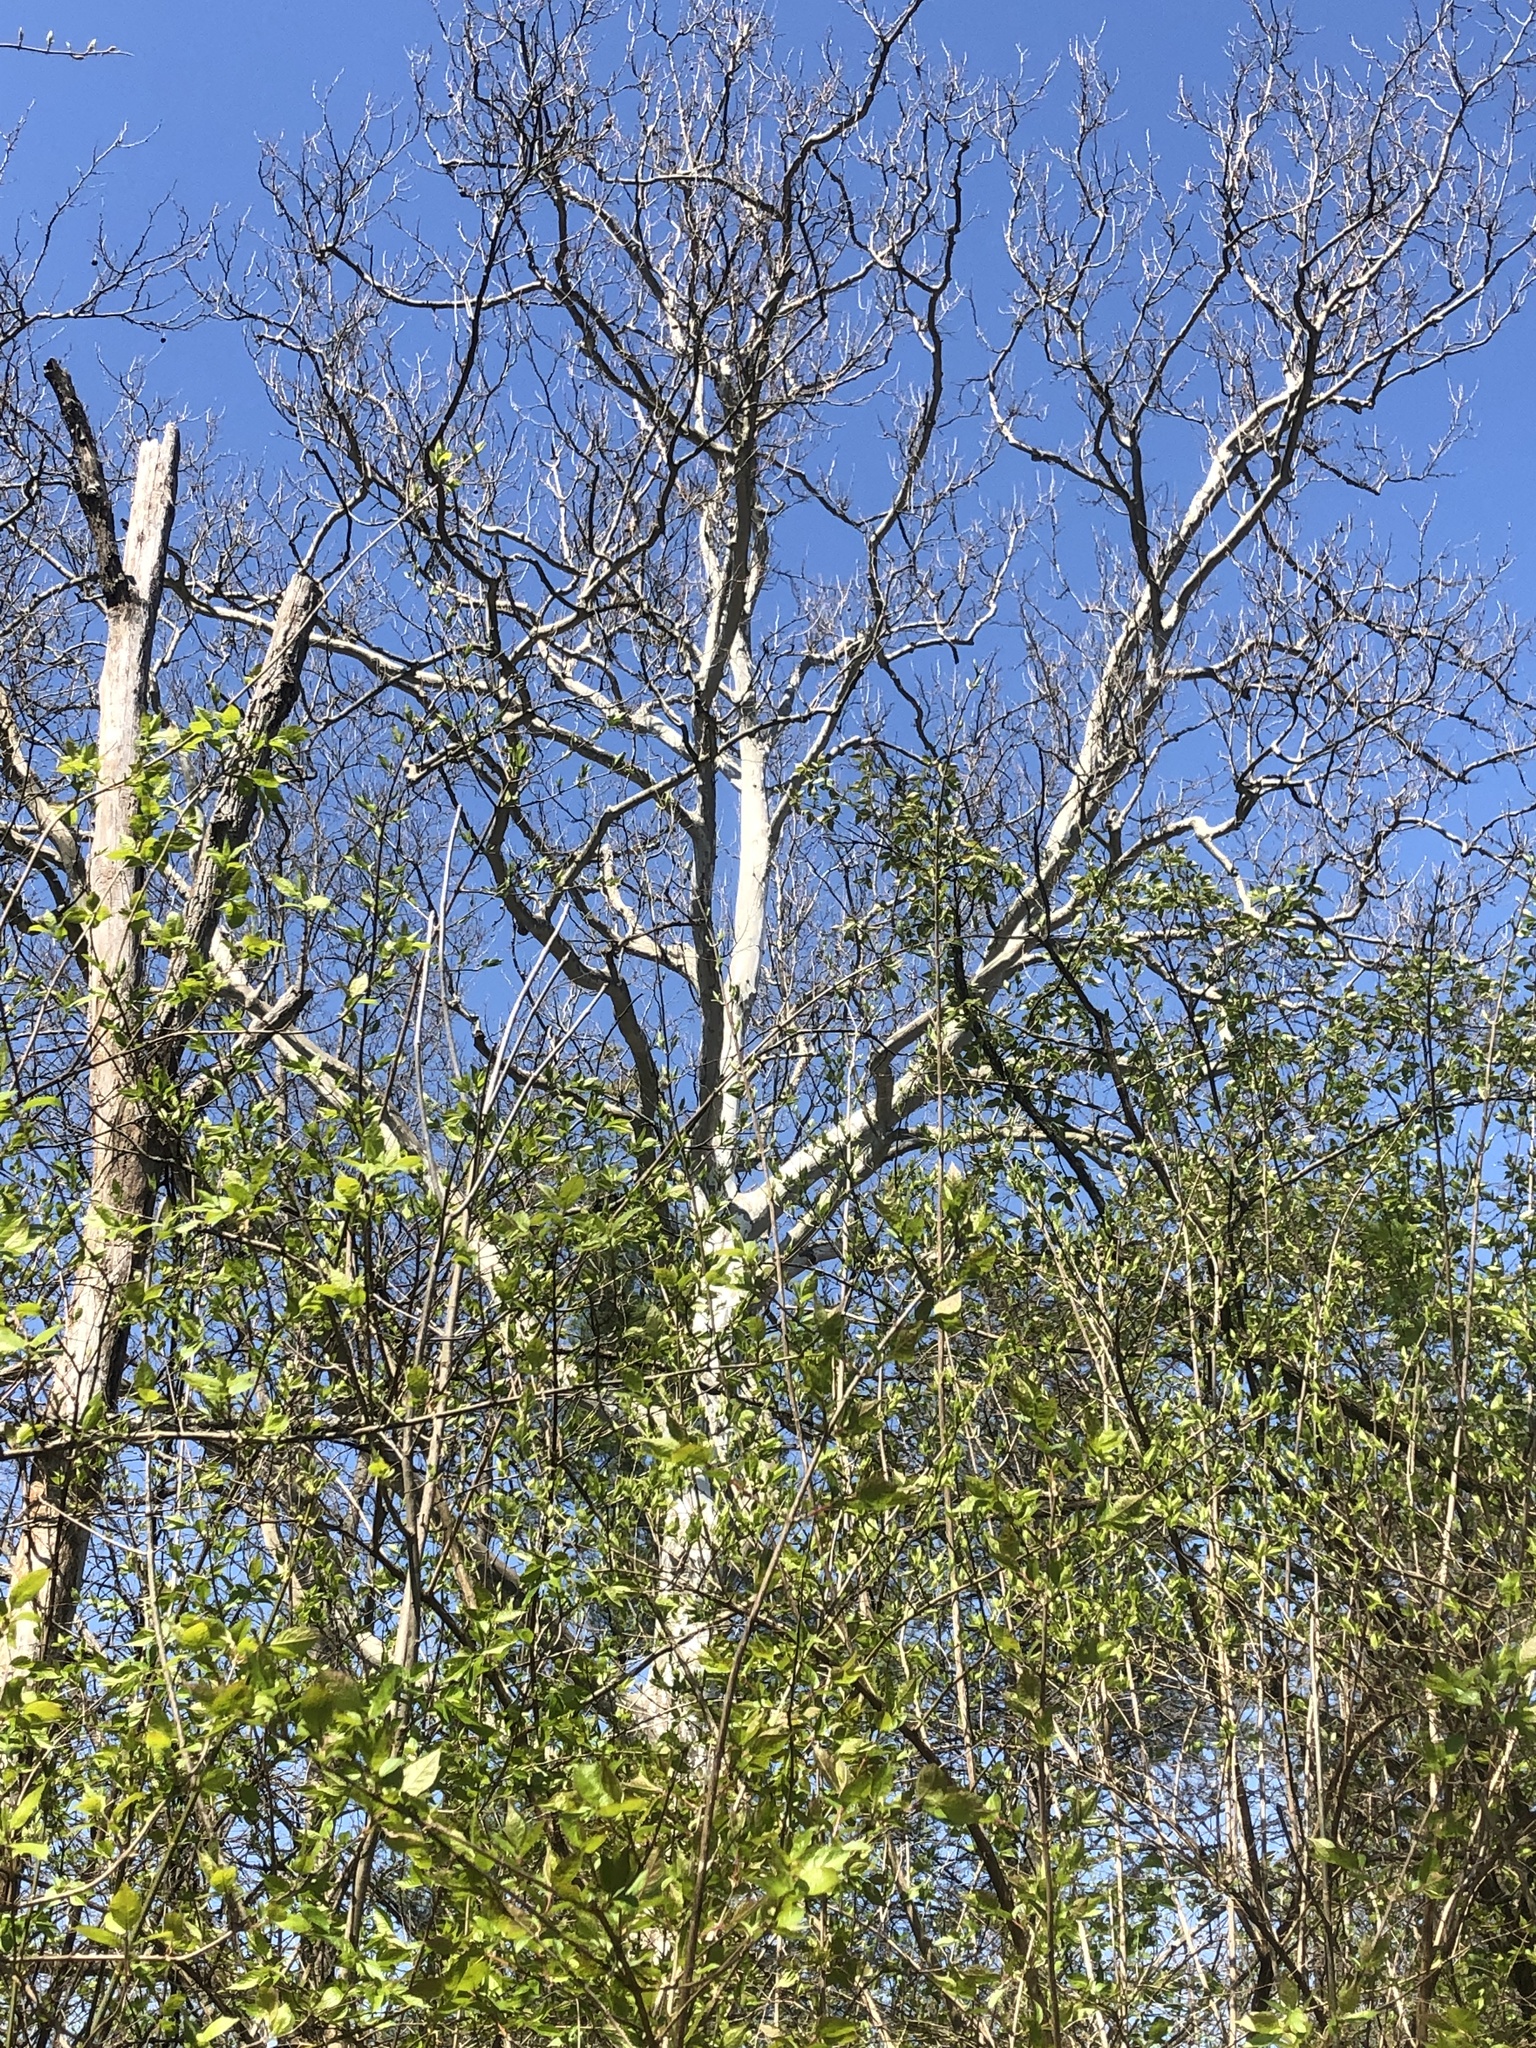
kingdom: Plantae
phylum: Tracheophyta
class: Magnoliopsida
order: Proteales
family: Platanaceae
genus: Platanus
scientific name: Platanus occidentalis
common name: American sycamore
